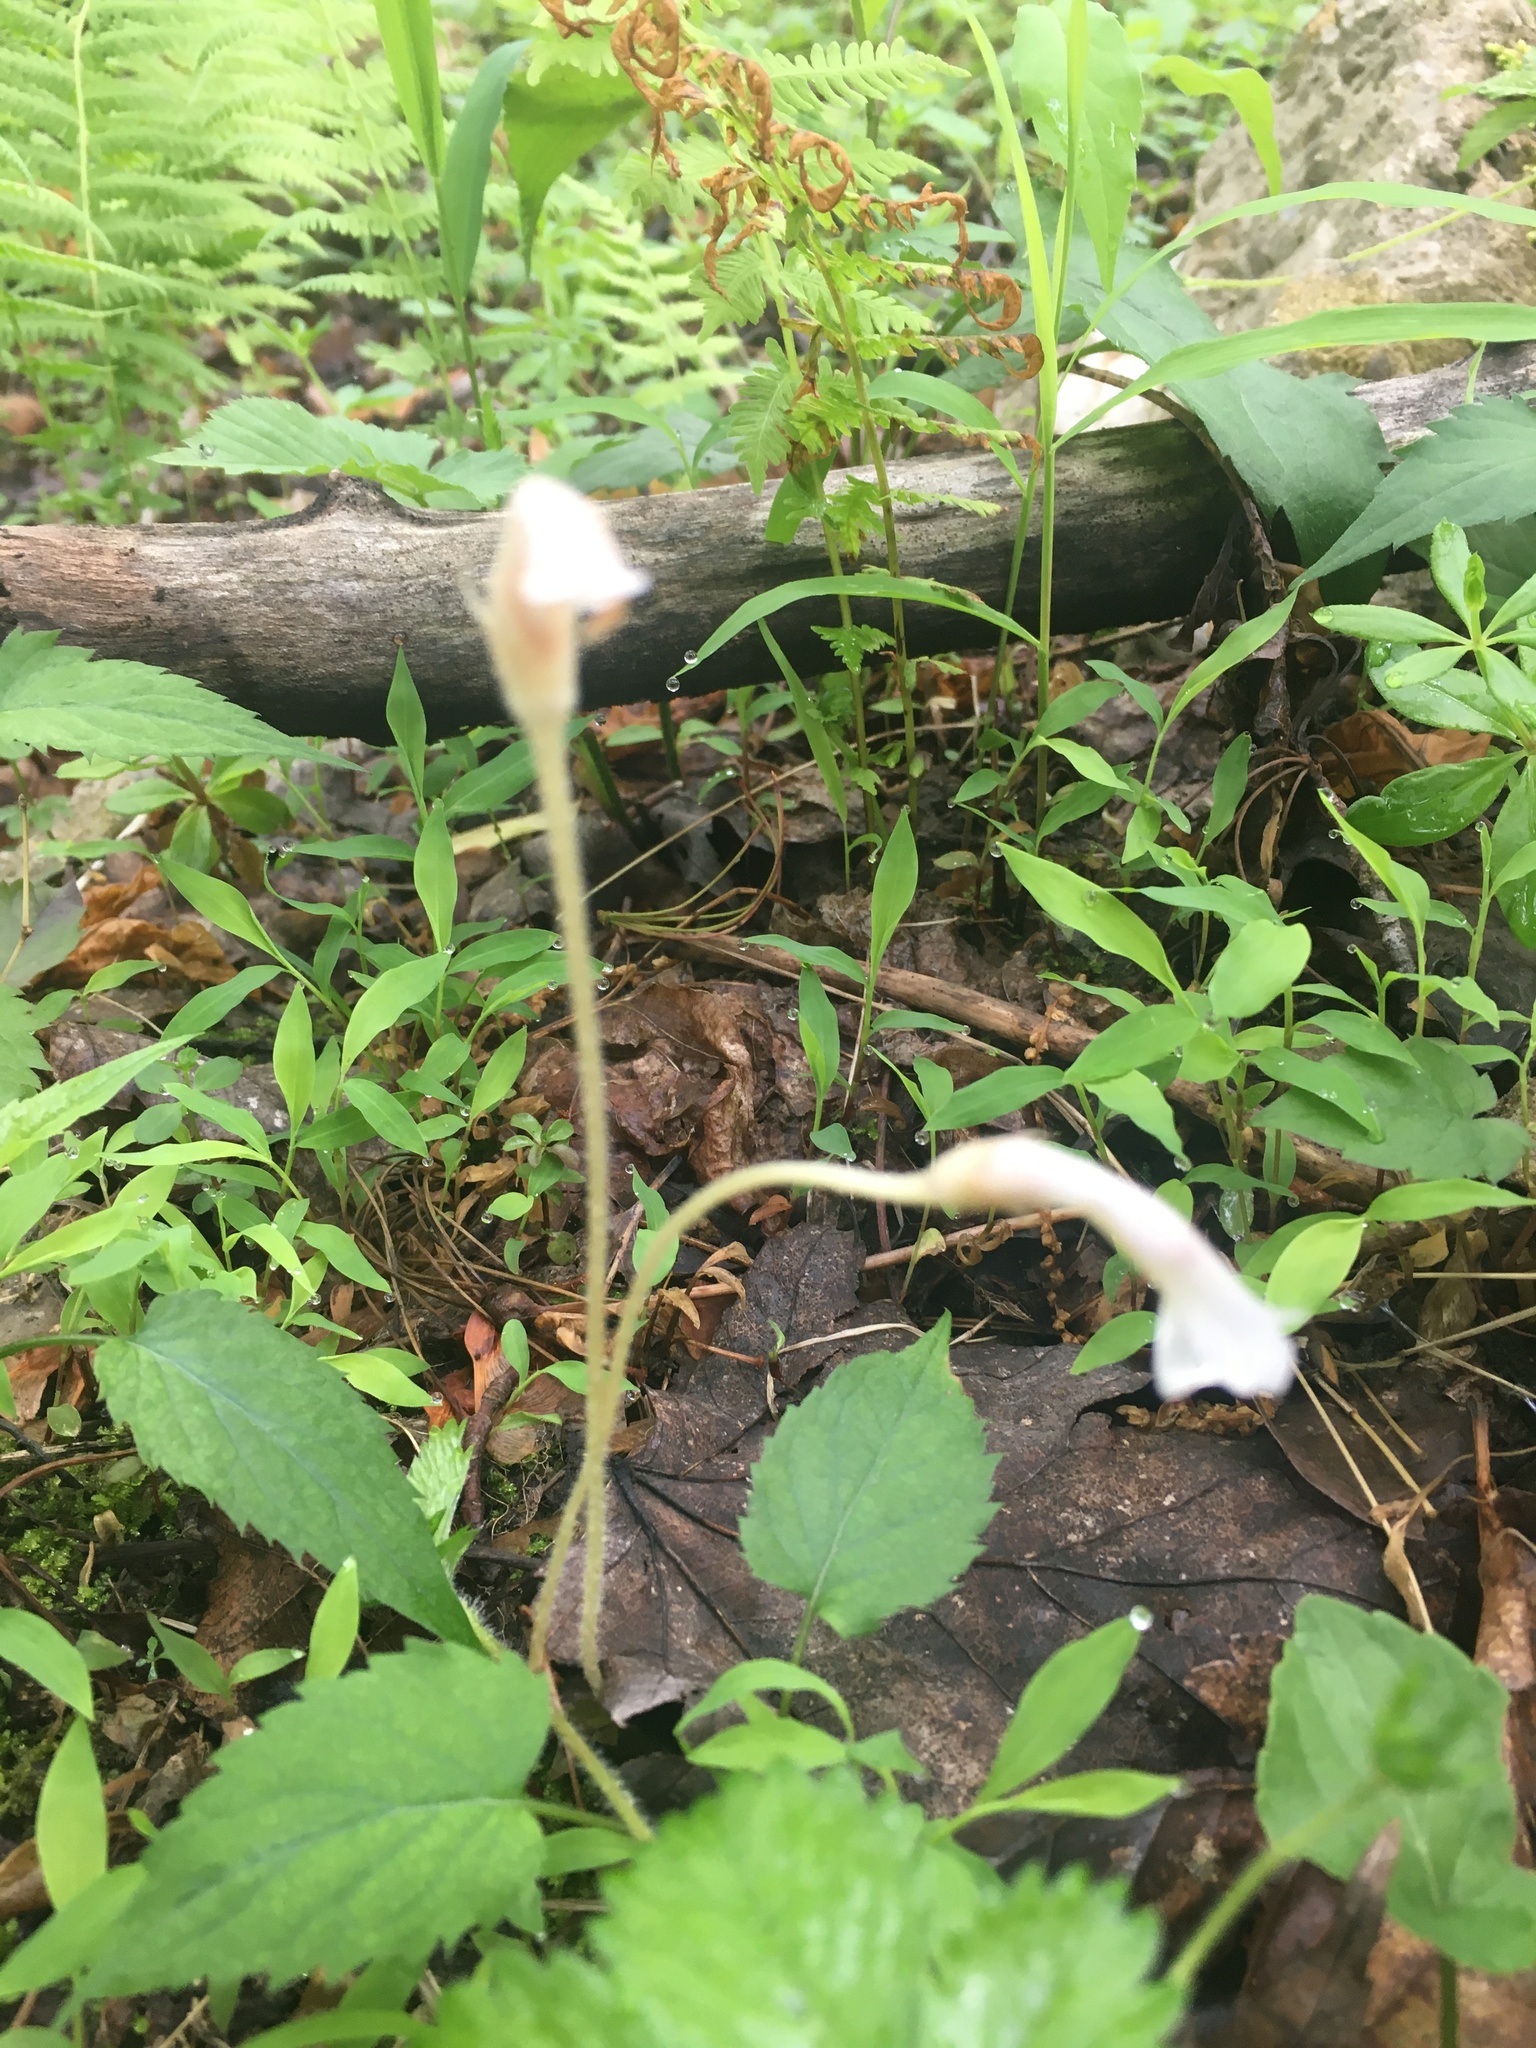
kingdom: Plantae
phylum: Tracheophyta
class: Magnoliopsida
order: Lamiales
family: Orobanchaceae
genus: Aphyllon
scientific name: Aphyllon uniflorum
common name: One-flowered broomrape
